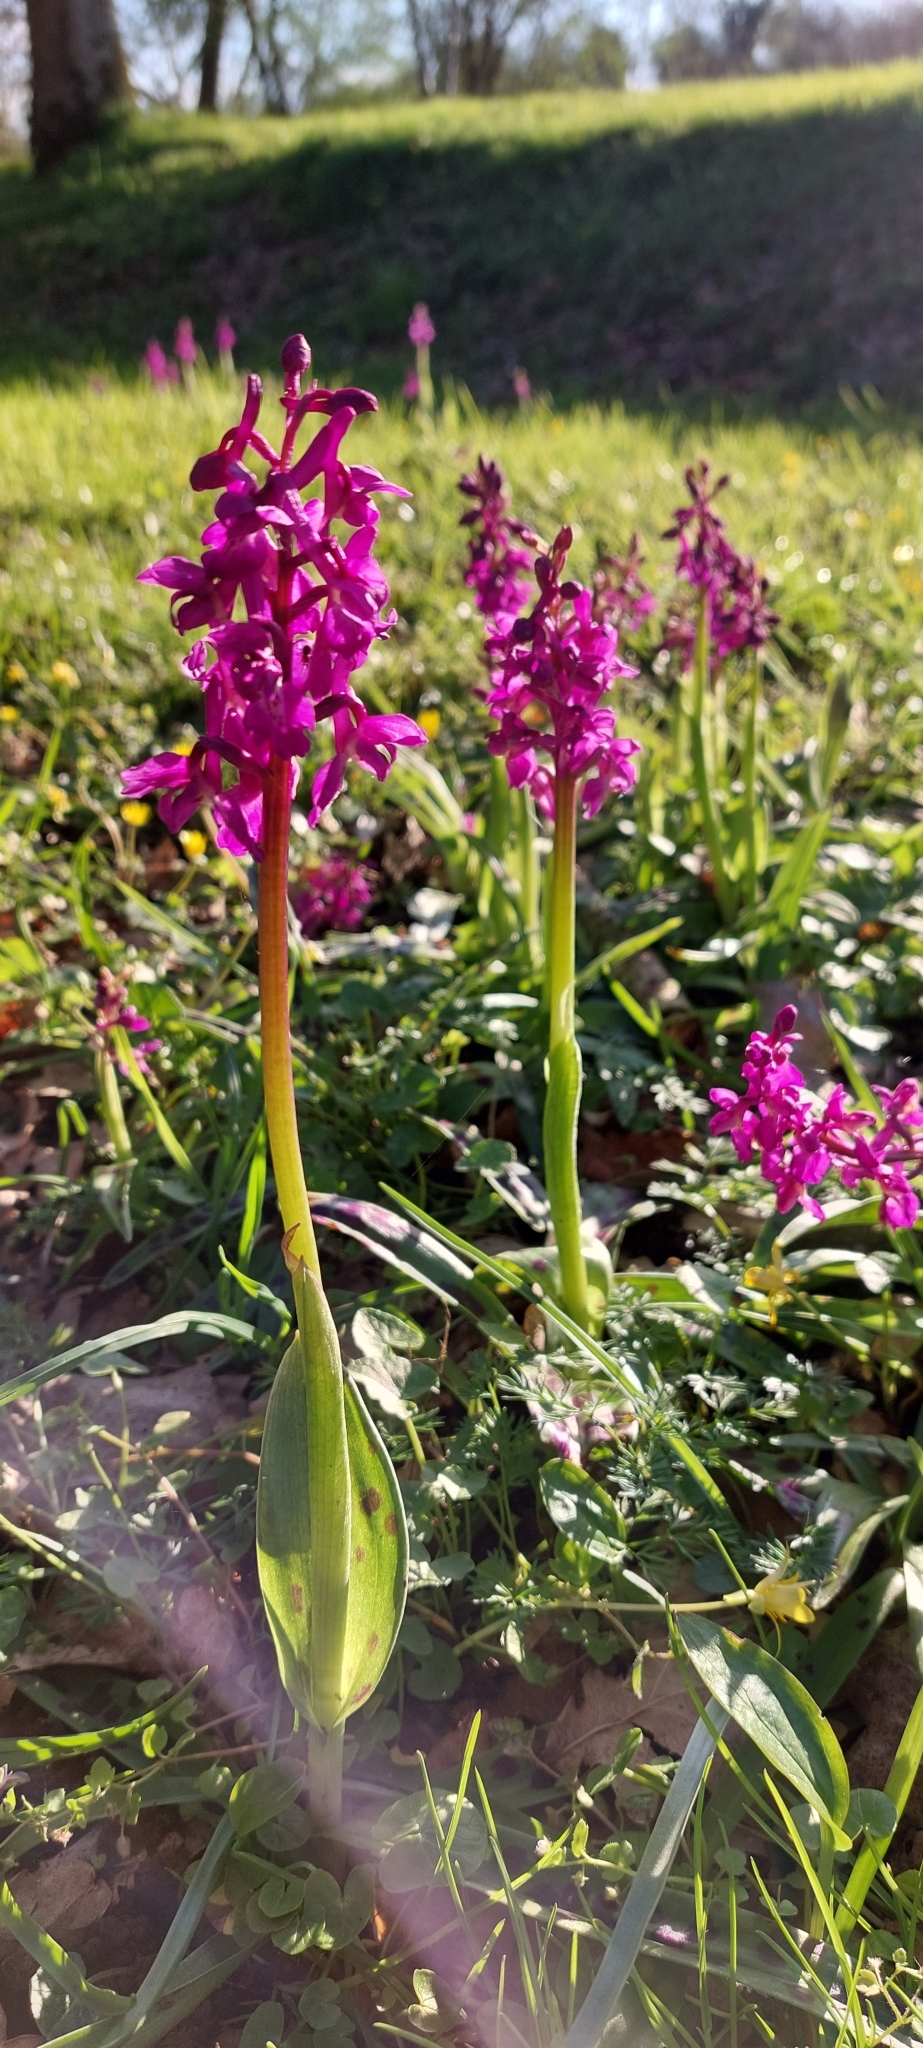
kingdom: Plantae
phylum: Tracheophyta
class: Liliopsida
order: Asparagales
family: Orchidaceae
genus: Orchis
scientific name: Orchis mascula
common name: Early-purple orchid
